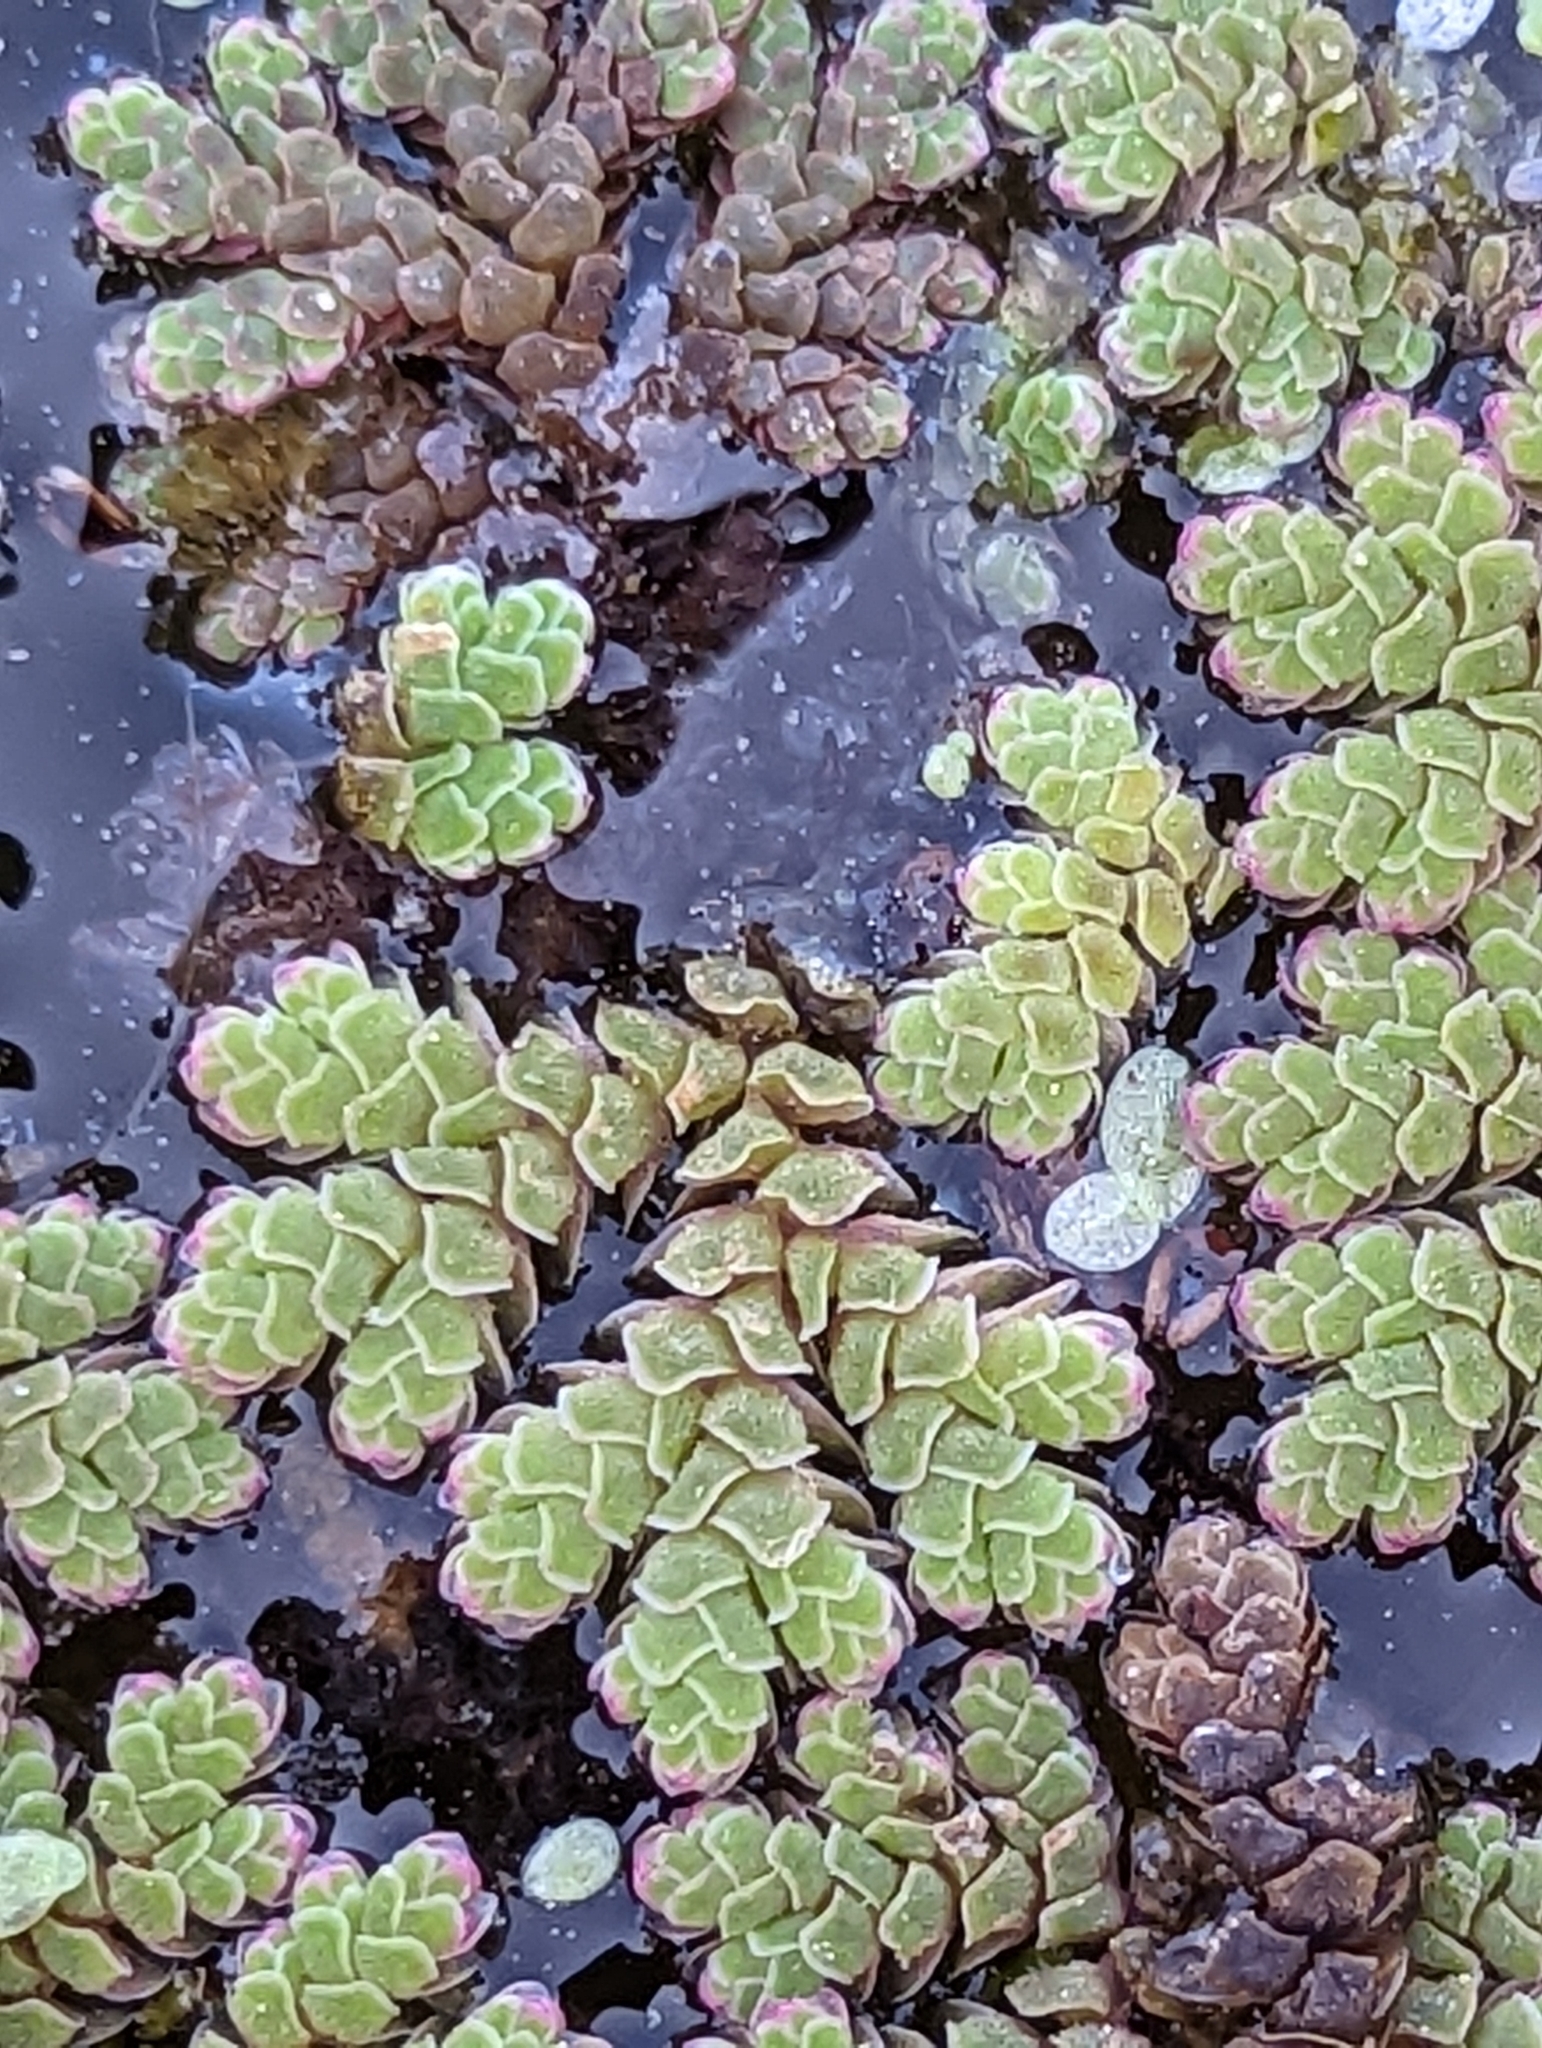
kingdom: Plantae
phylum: Tracheophyta
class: Polypodiopsida
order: Salviniales
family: Salviniaceae
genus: Azolla
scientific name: Azolla rubra
